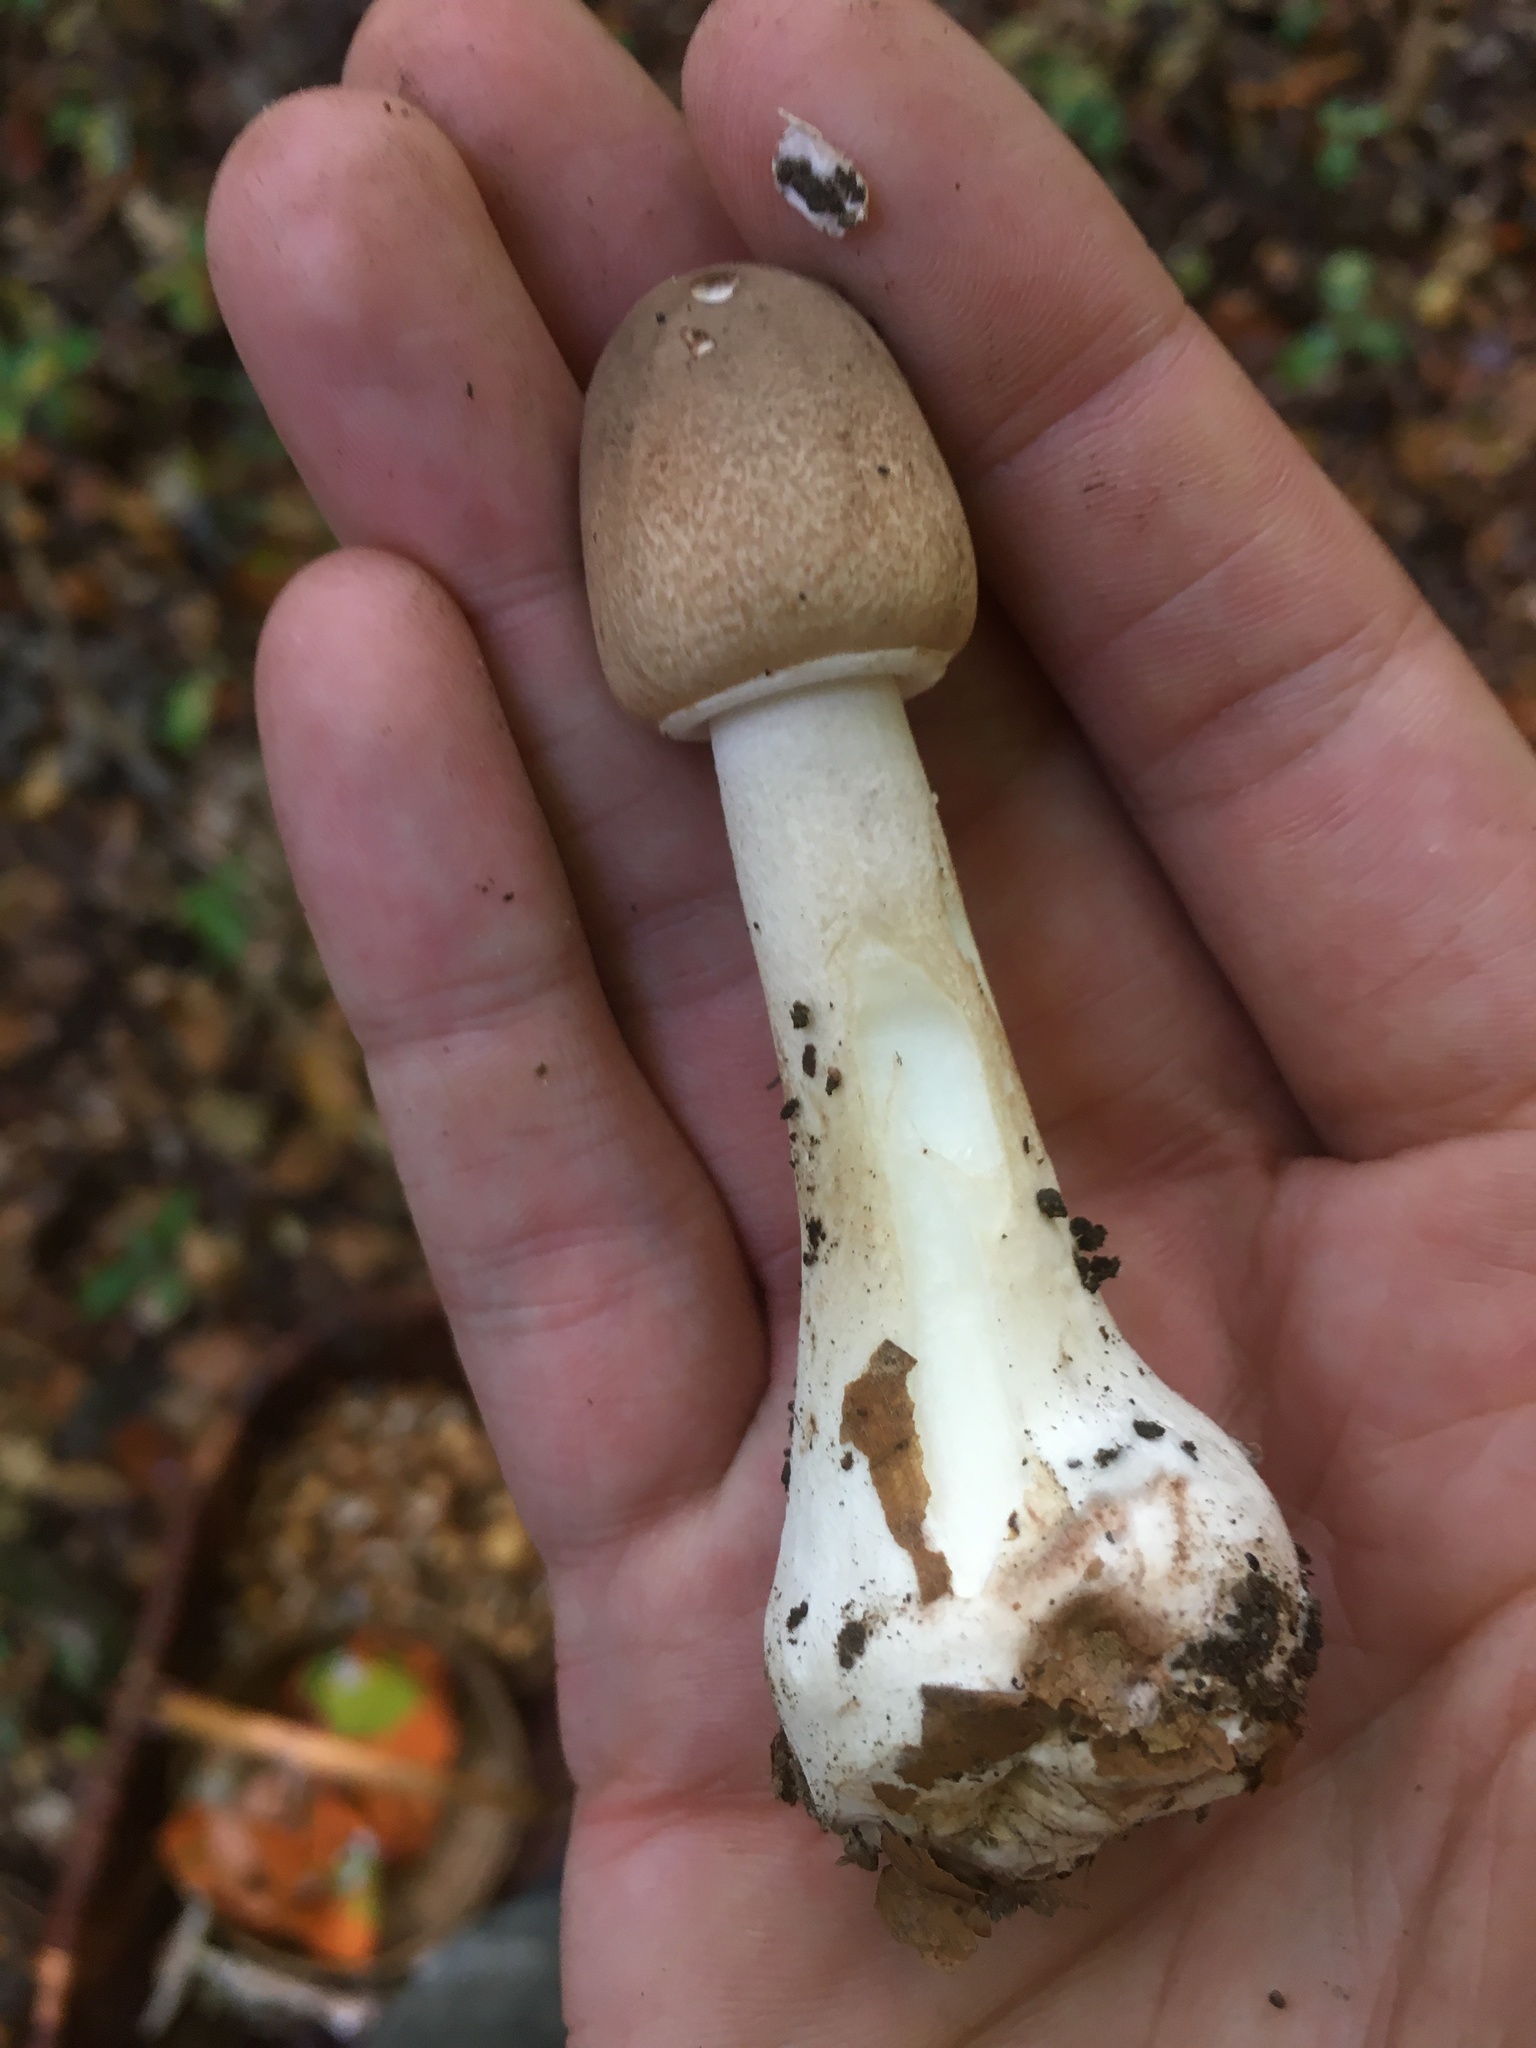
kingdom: Fungi
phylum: Basidiomycota
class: Agaricomycetes
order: Agaricales
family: Agaricaceae
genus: Macrolepiota
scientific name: Macrolepiota fuliginosa
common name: Sooty parasol
